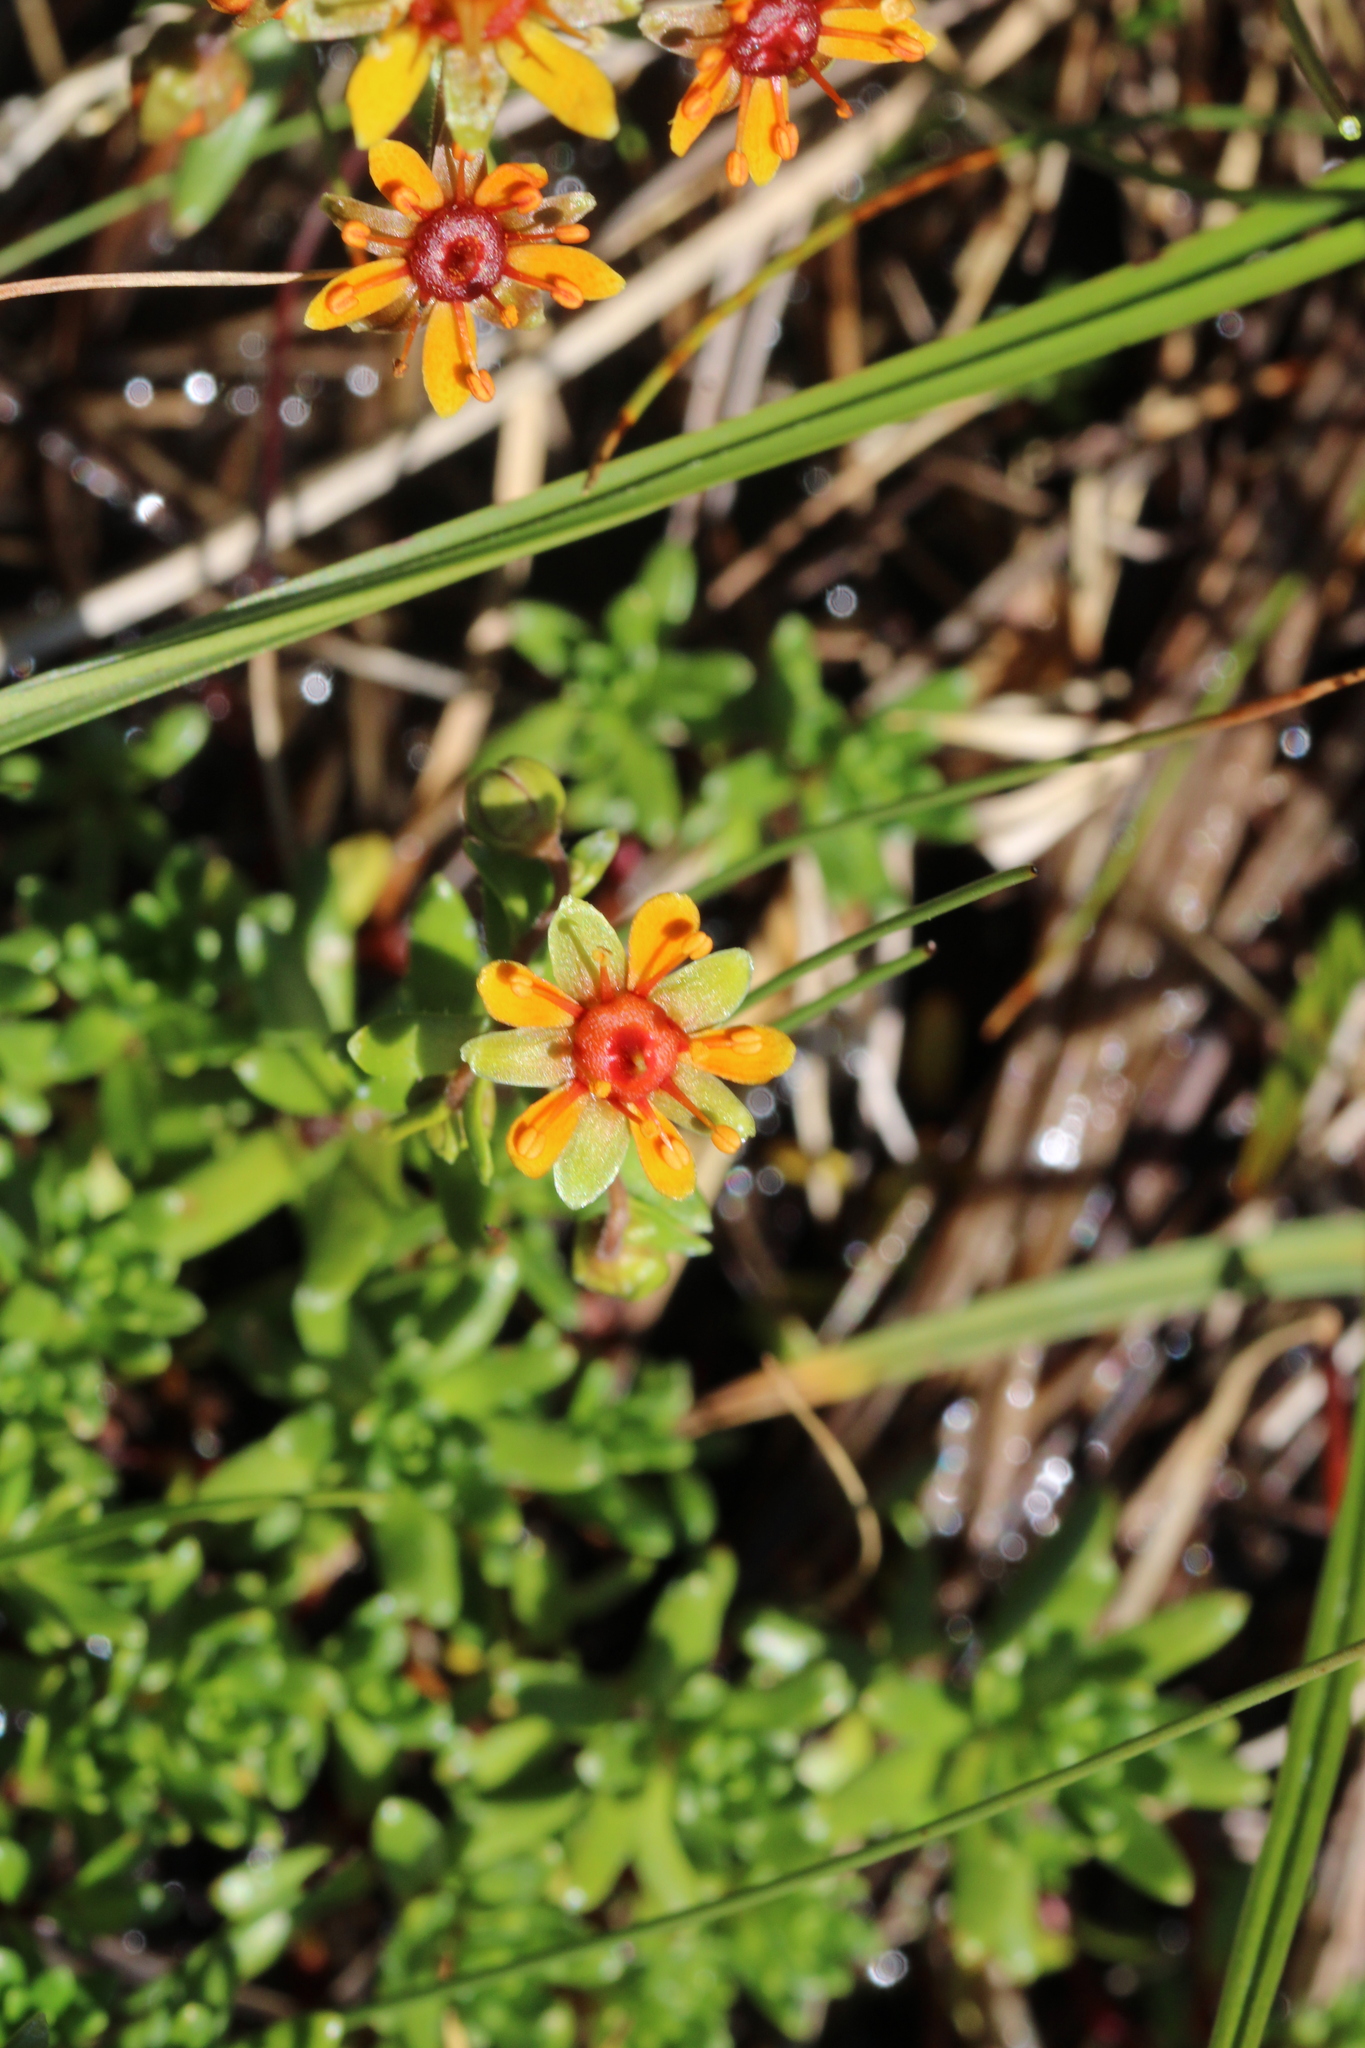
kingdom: Plantae
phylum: Tracheophyta
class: Magnoliopsida
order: Saxifragales
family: Saxifragaceae
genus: Saxifraga
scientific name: Saxifraga aizoides
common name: Yellow mountain saxifrage
